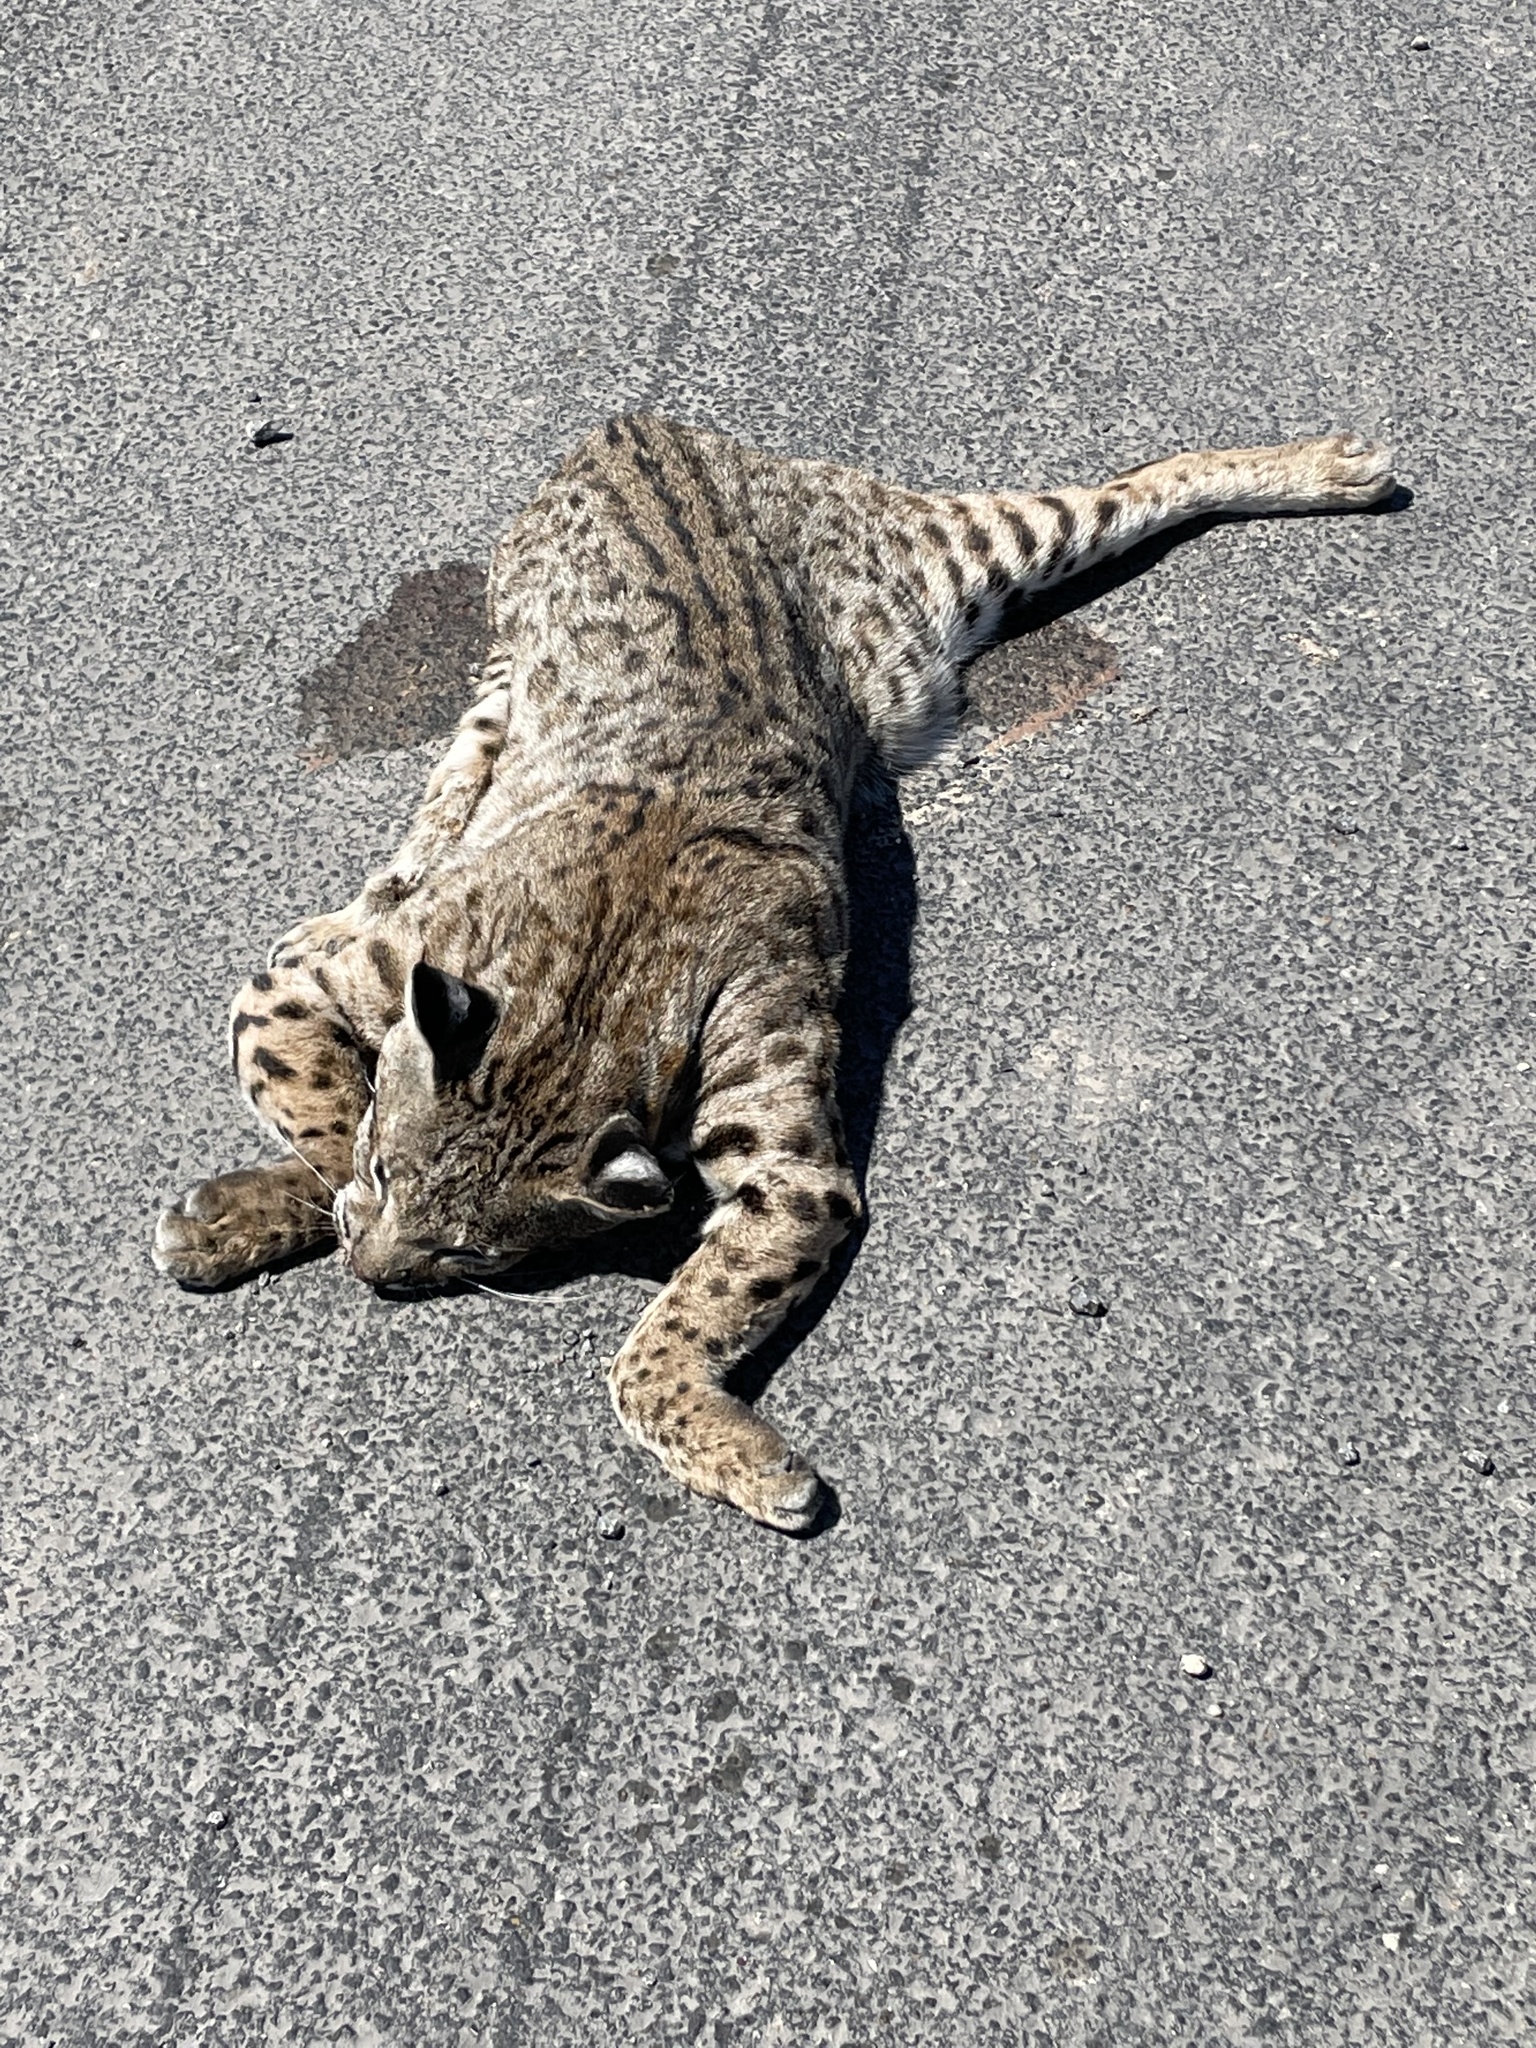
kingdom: Animalia
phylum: Chordata
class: Mammalia
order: Carnivora
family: Felidae
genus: Lynx
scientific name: Lynx rufus
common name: Bobcat
